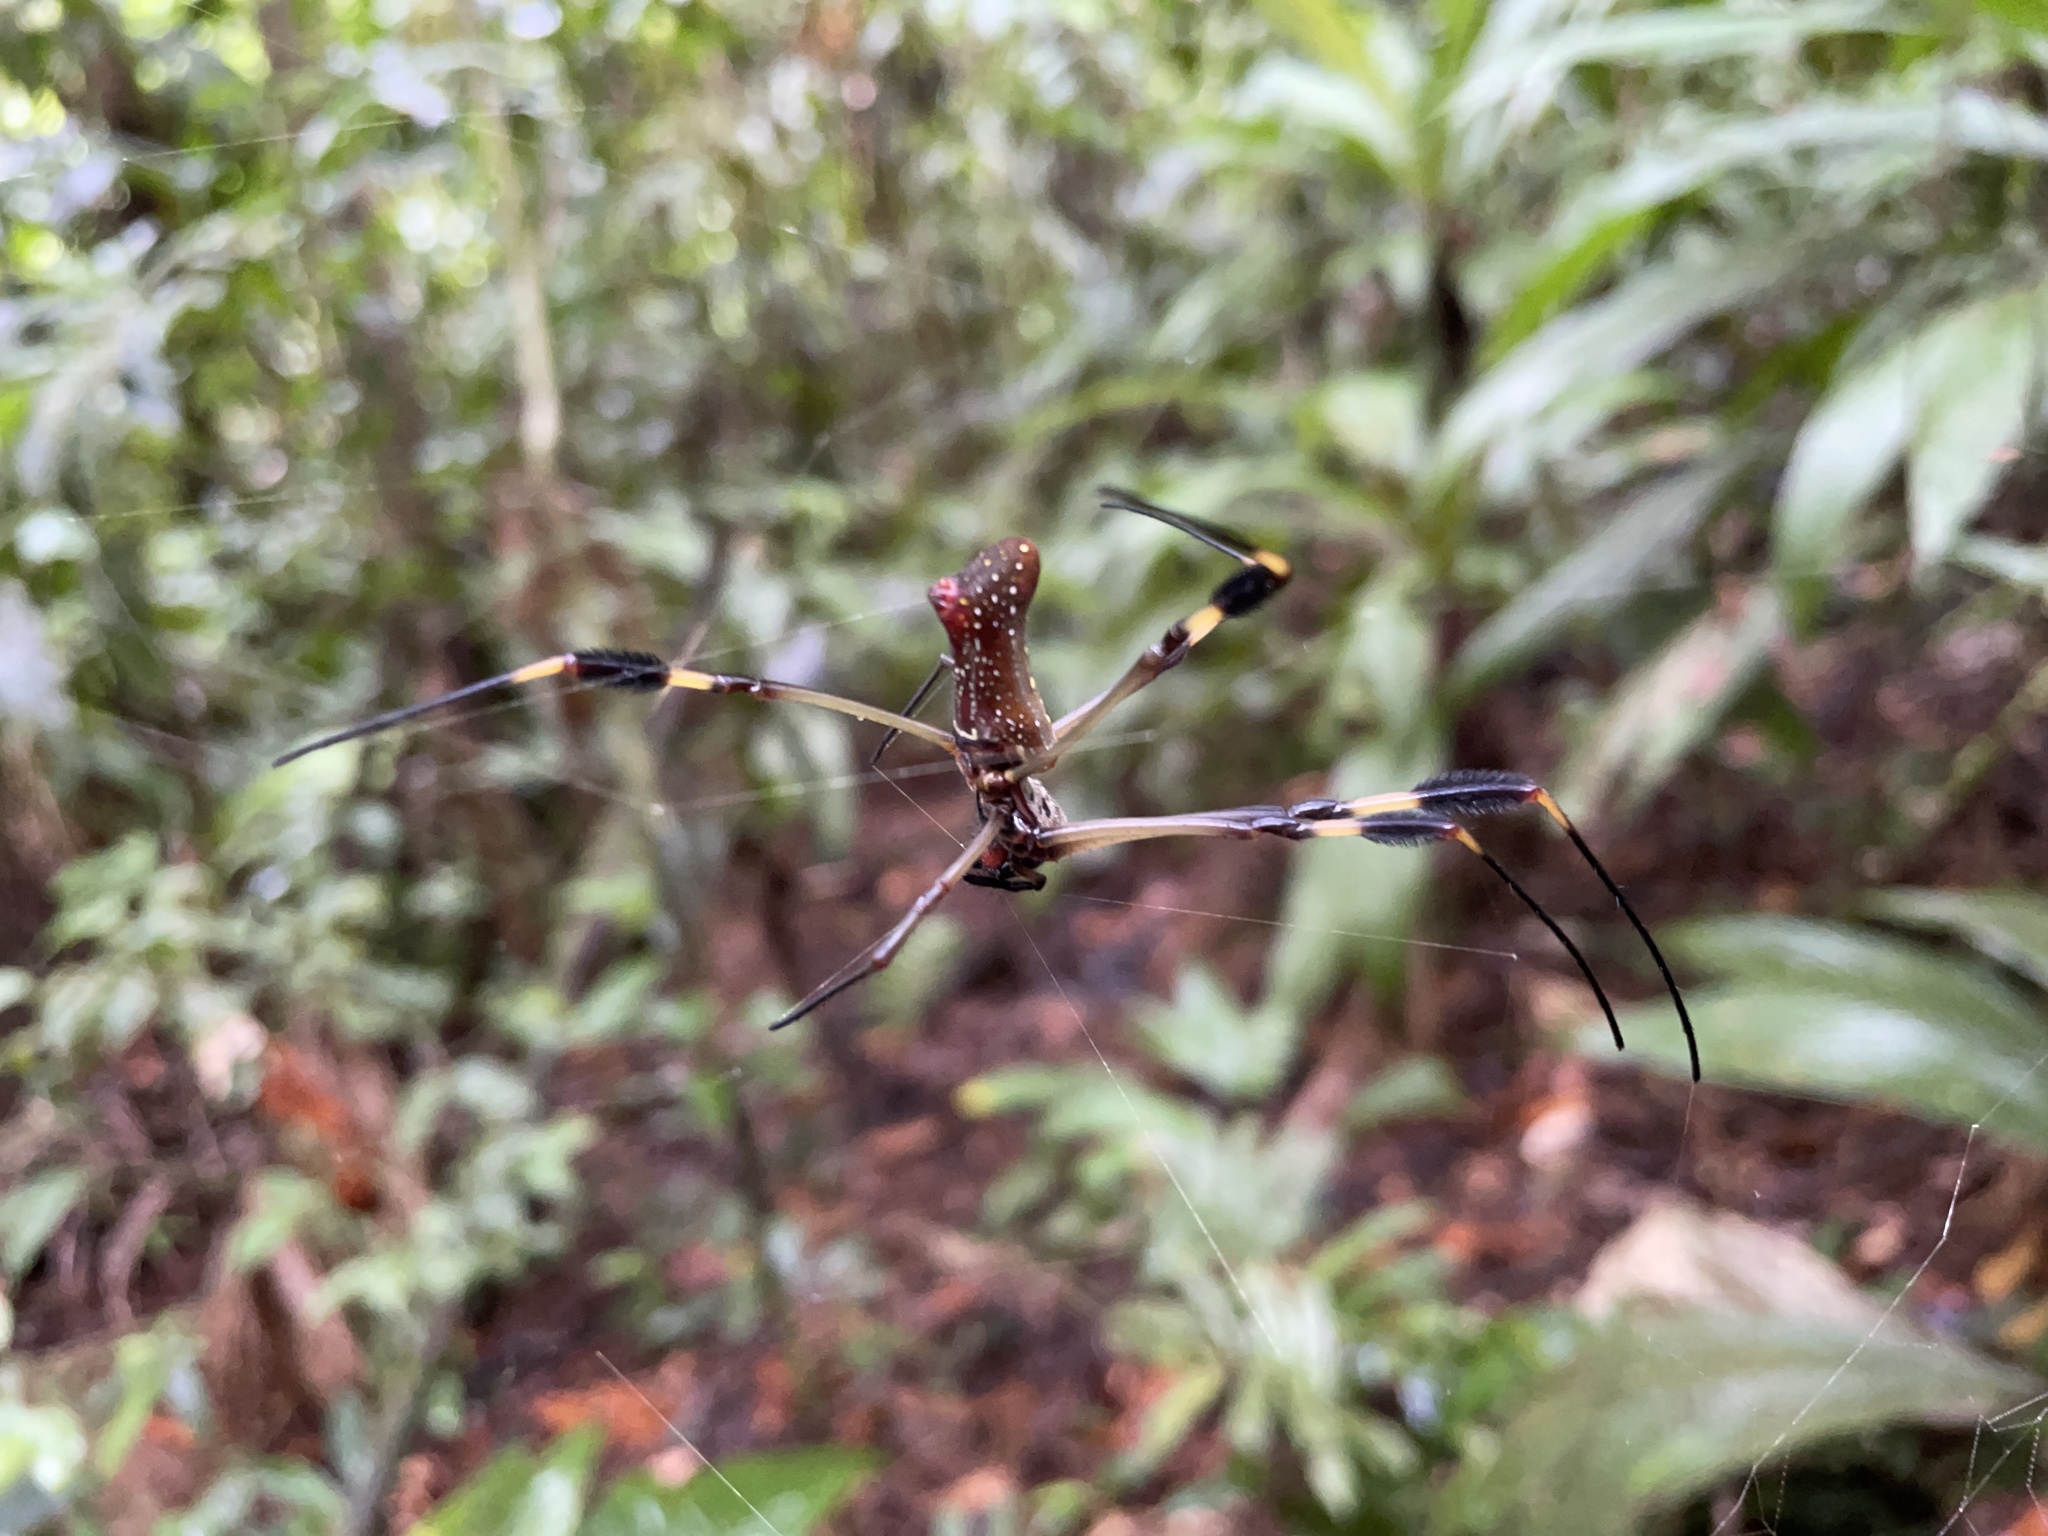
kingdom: Animalia
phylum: Arthropoda
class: Arachnida
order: Araneae
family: Araneidae
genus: Trichonephila
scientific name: Trichonephila clavipes
